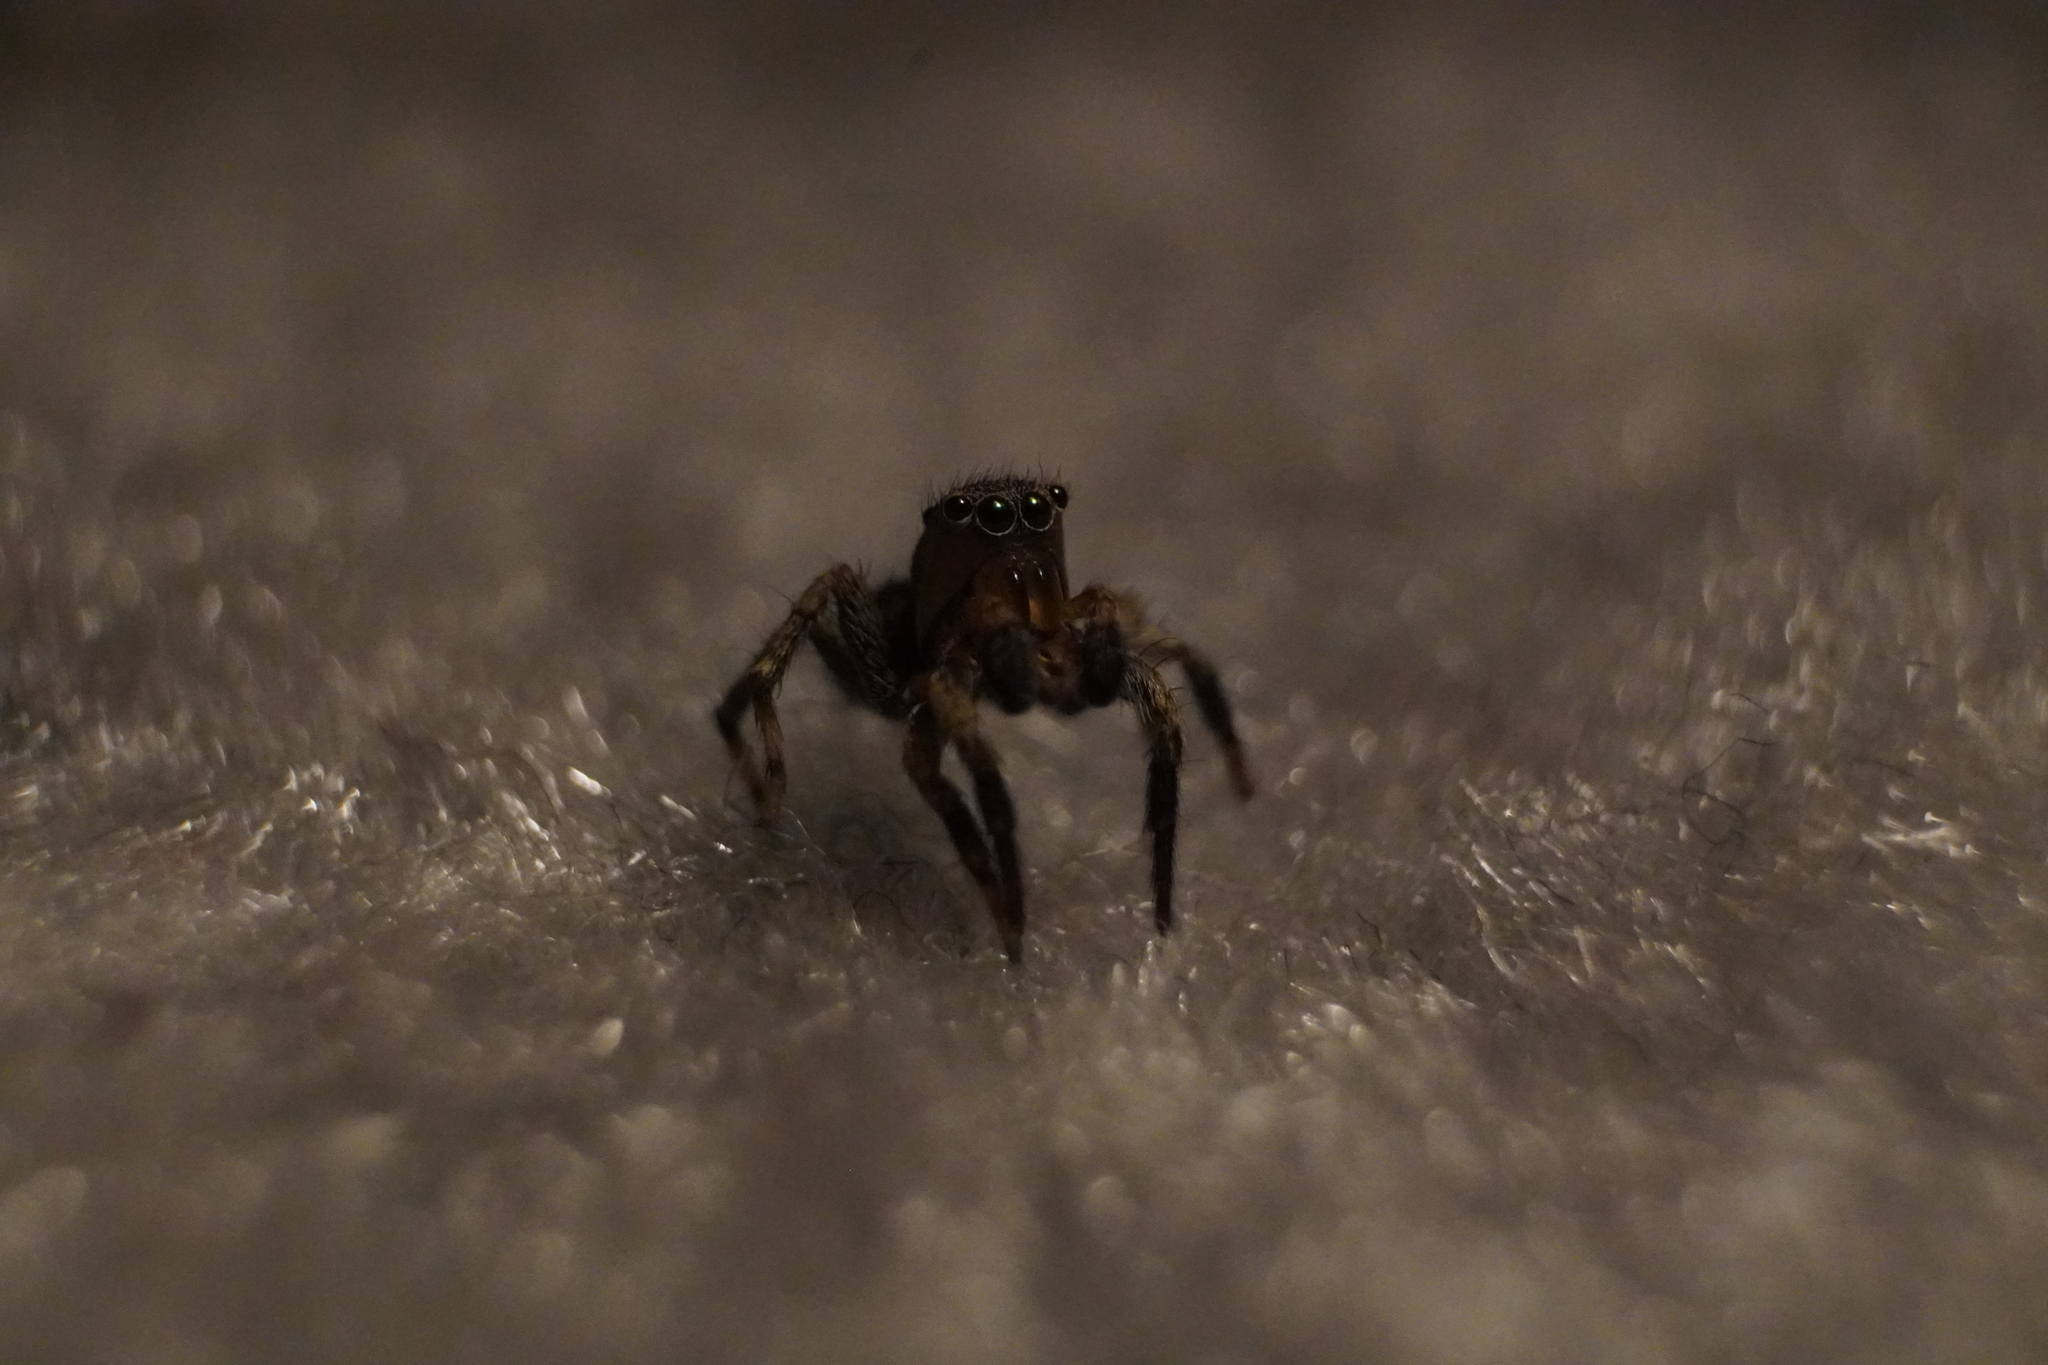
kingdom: Animalia
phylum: Arthropoda
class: Arachnida
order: Araneae
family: Salticidae
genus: Naphrys
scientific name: Naphrys pulex
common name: Flea jumping spider
